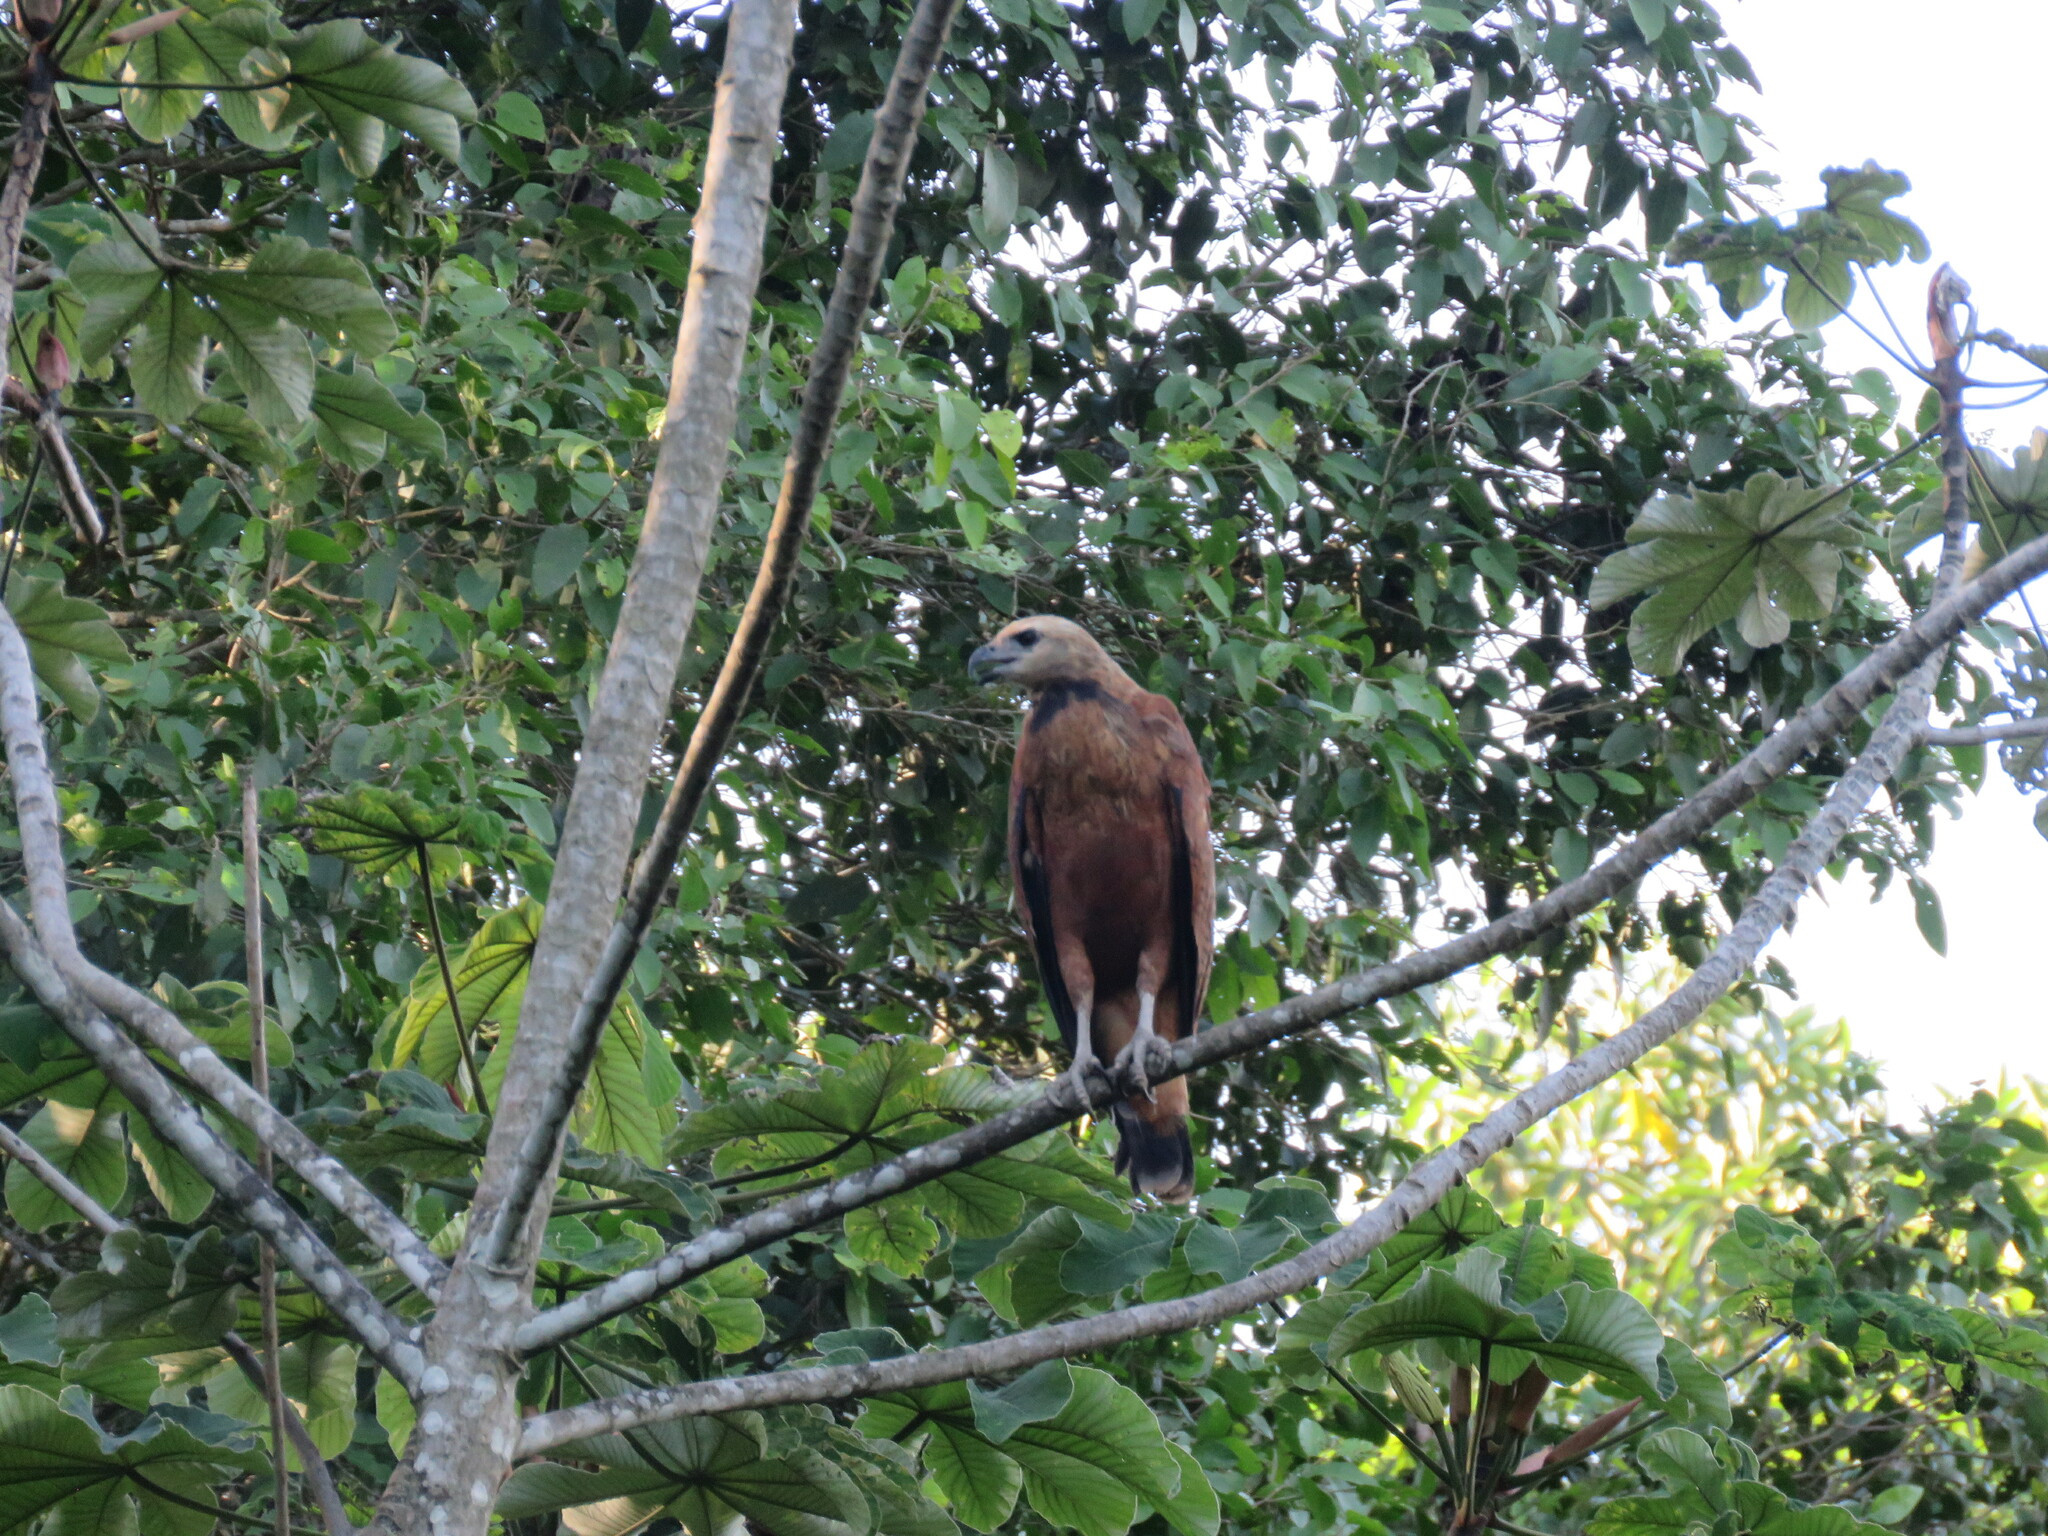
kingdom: Animalia
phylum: Chordata
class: Aves
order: Accipitriformes
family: Accipitridae
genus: Busarellus
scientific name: Busarellus nigricollis
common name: Black-collared hawk
